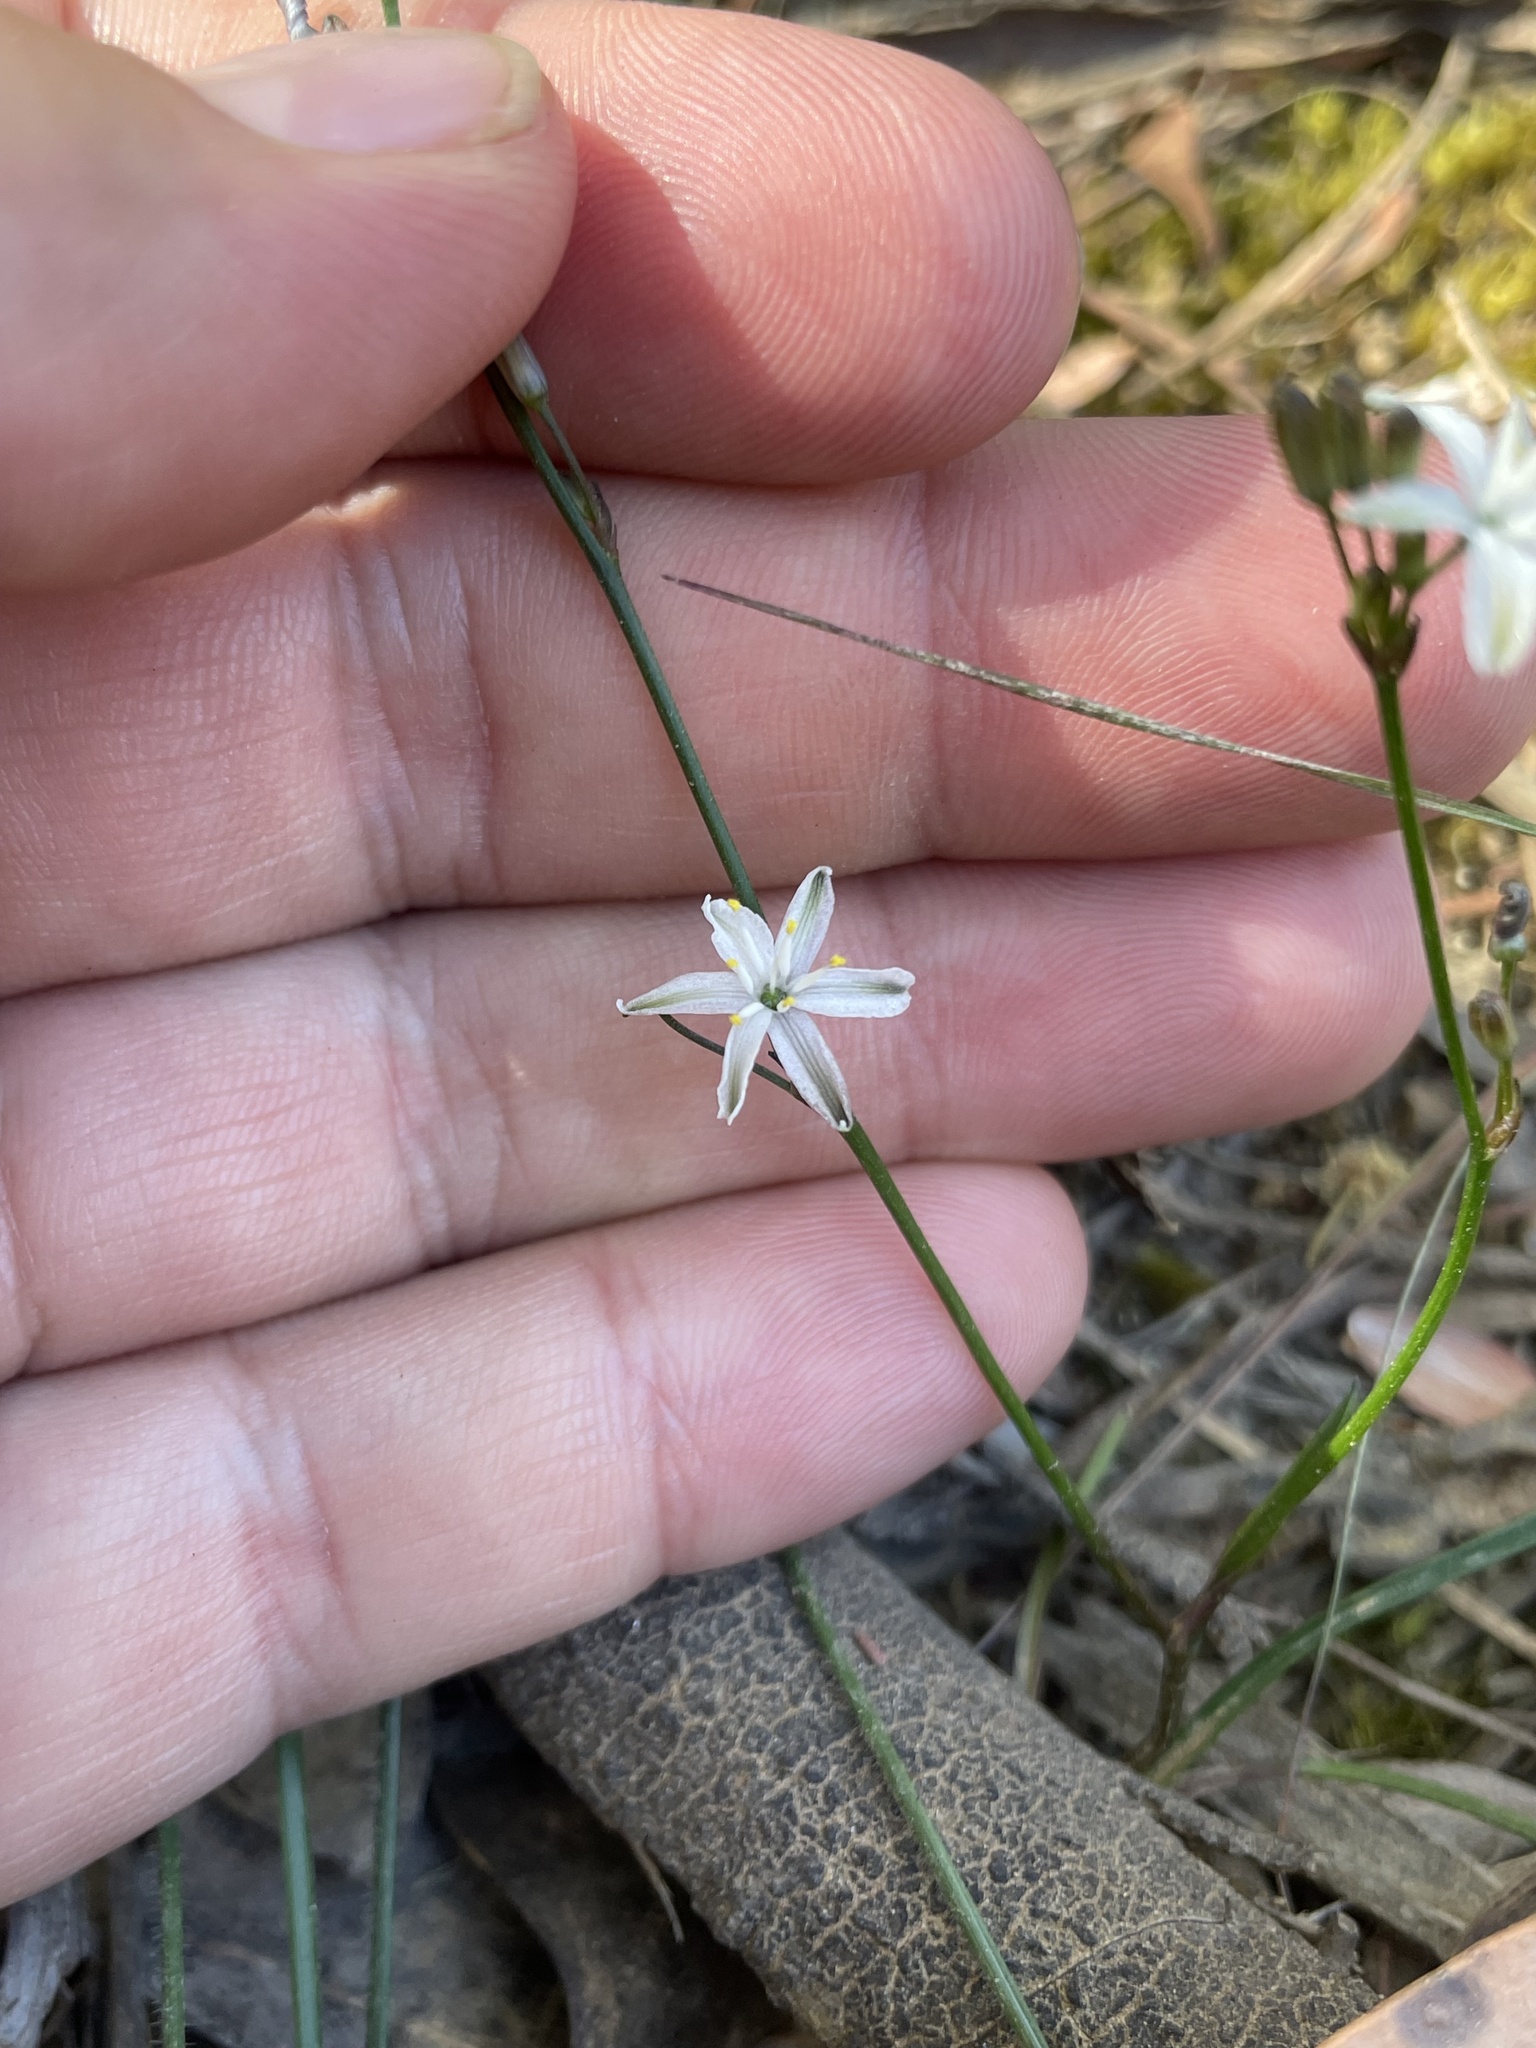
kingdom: Plantae
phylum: Tracheophyta
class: Liliopsida
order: Asparagales
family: Asphodelaceae
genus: Caesia
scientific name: Caesia parviflora
